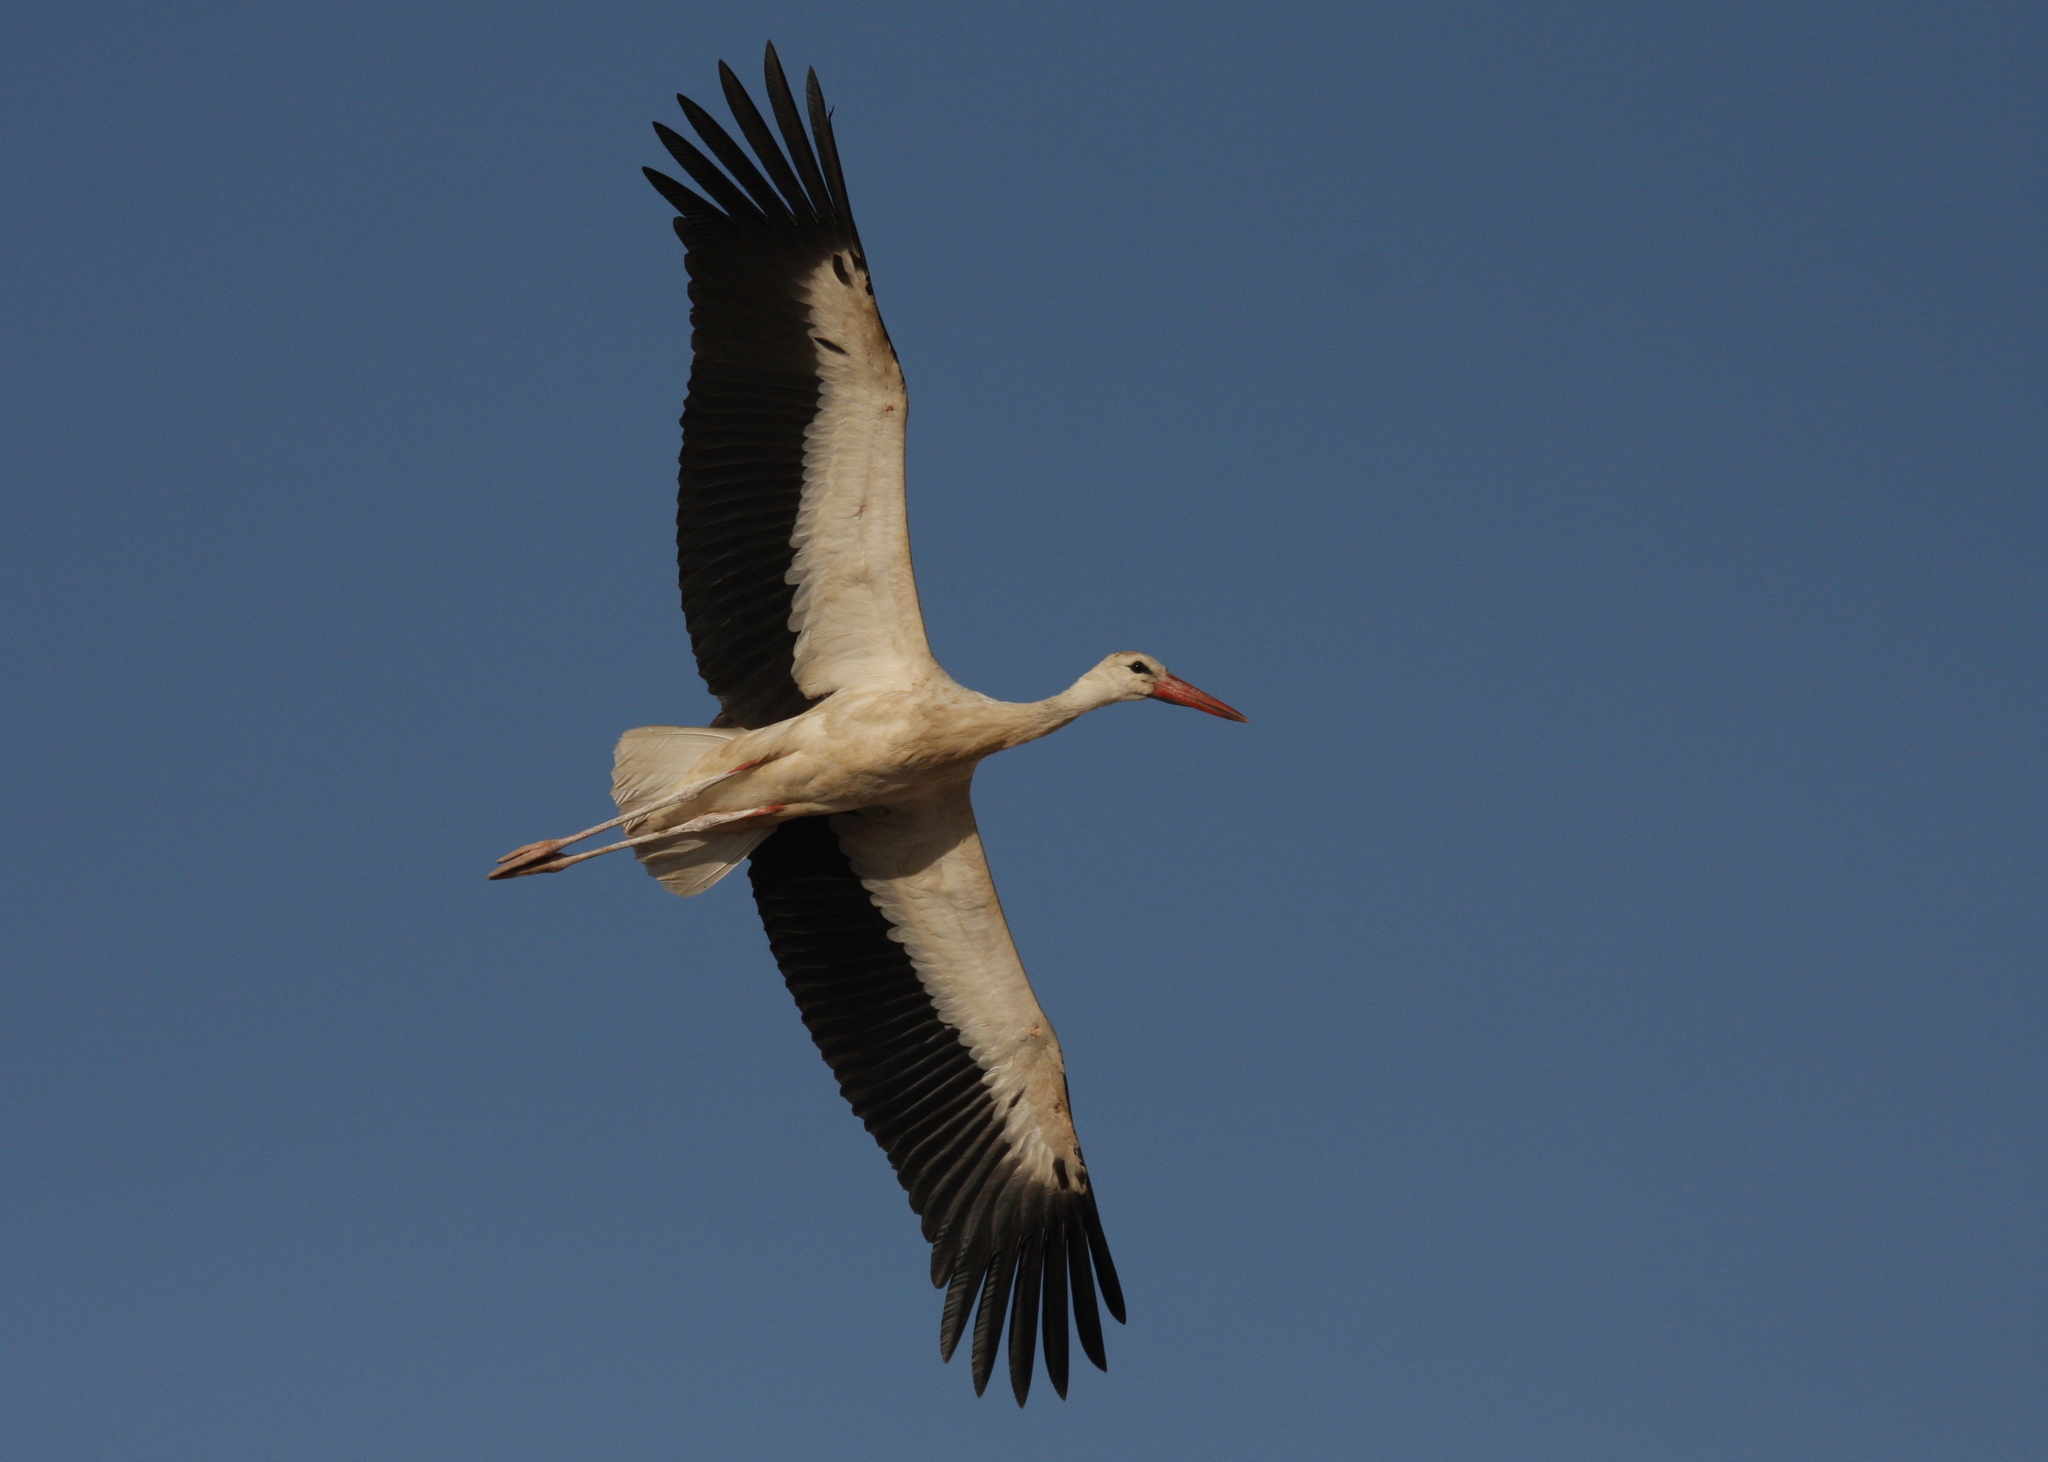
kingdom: Animalia
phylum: Chordata
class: Aves
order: Ciconiiformes
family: Ciconiidae
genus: Ciconia
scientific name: Ciconia ciconia
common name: White stork
